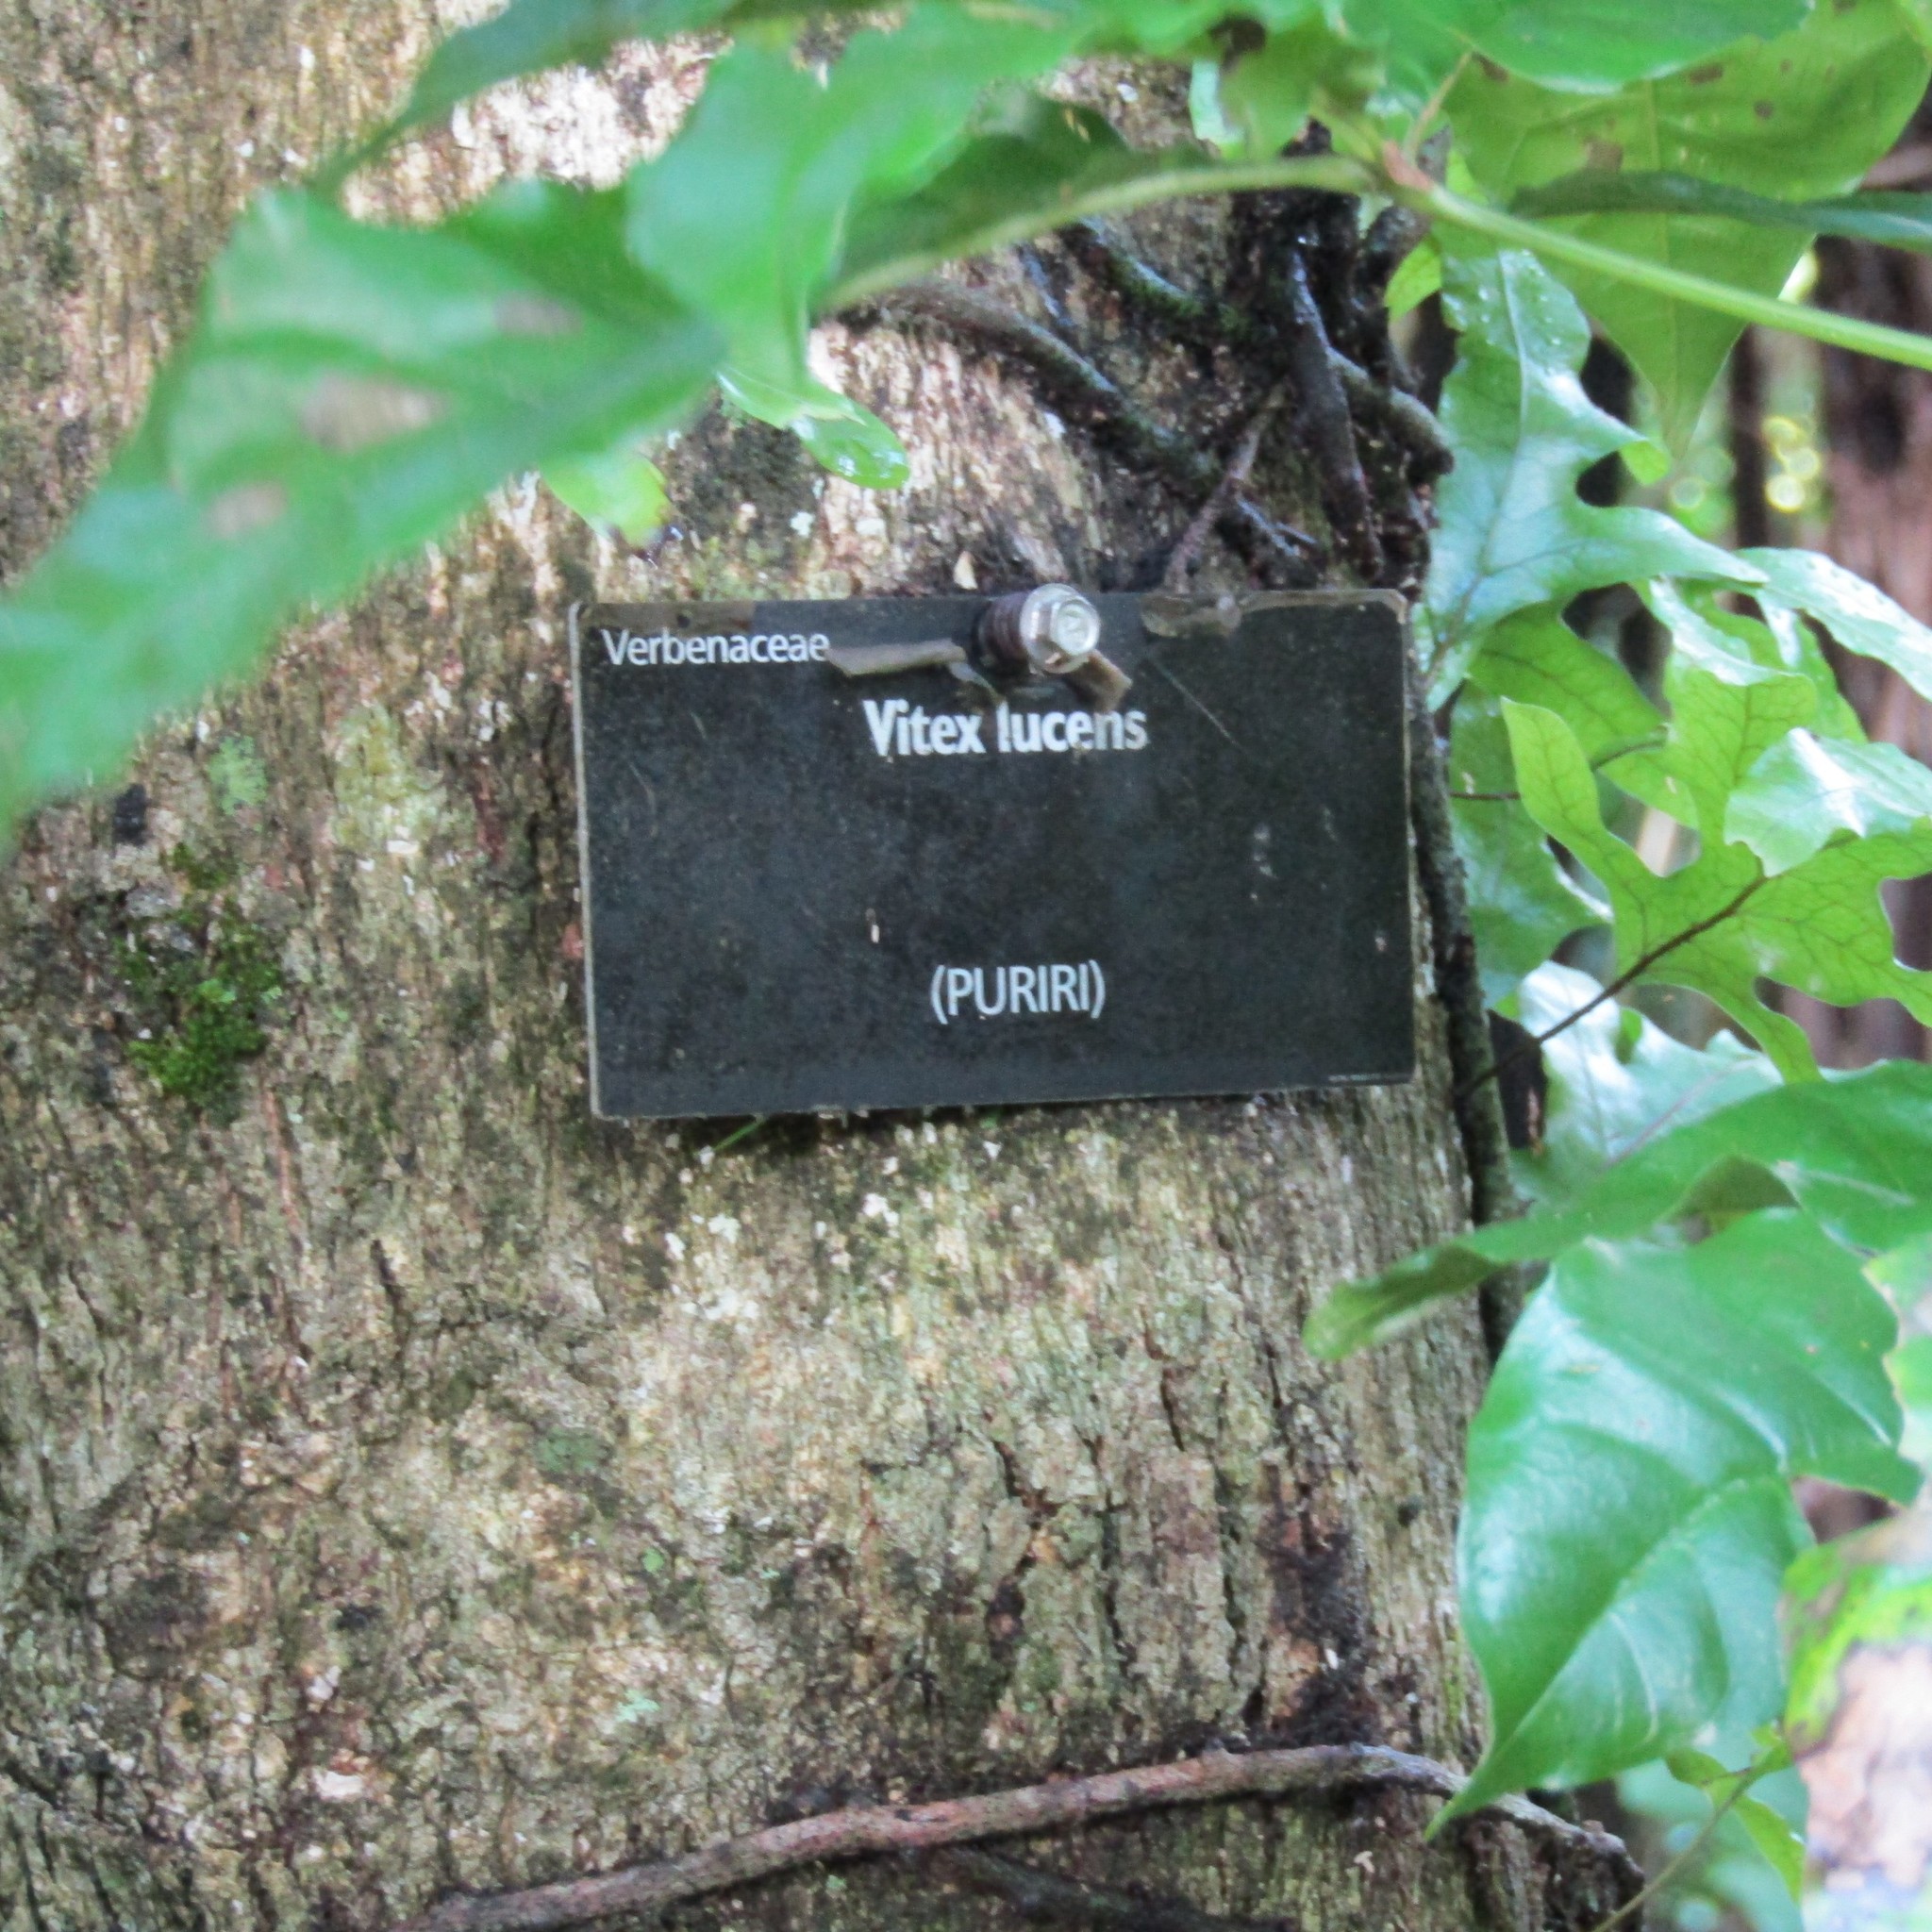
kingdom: Plantae
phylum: Tracheophyta
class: Magnoliopsida
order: Lamiales
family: Lamiaceae
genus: Vitex
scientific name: Vitex lucens
